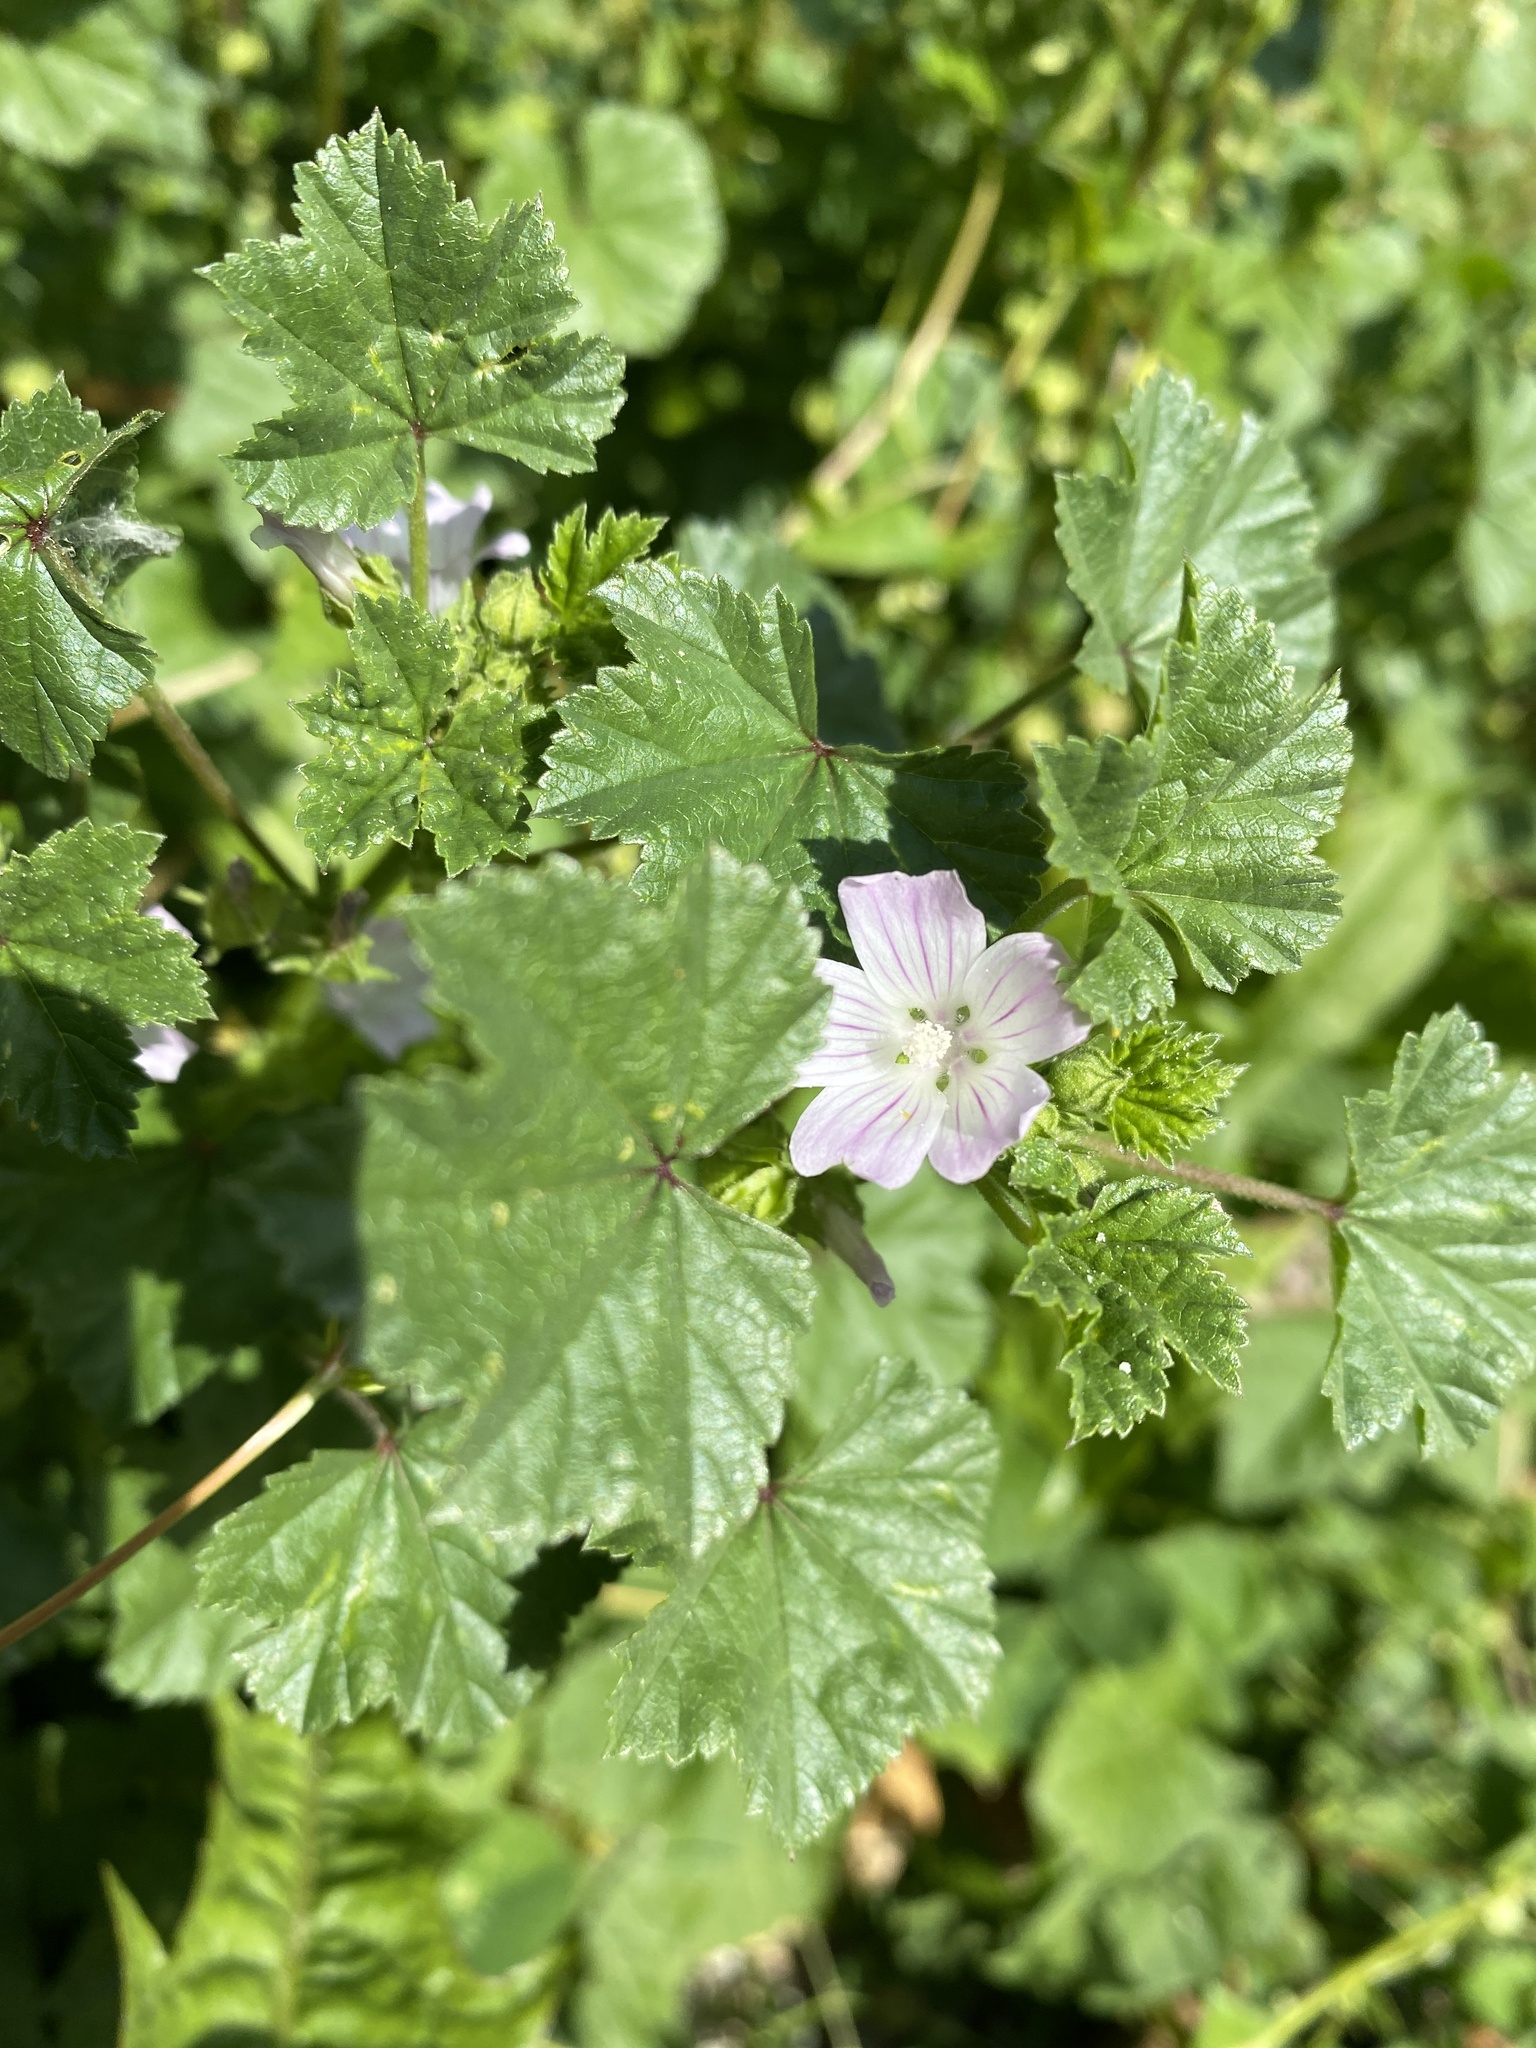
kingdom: Plantae
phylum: Tracheophyta
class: Magnoliopsida
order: Malvales
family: Malvaceae
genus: Malva
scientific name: Malva neglecta
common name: Common mallow
